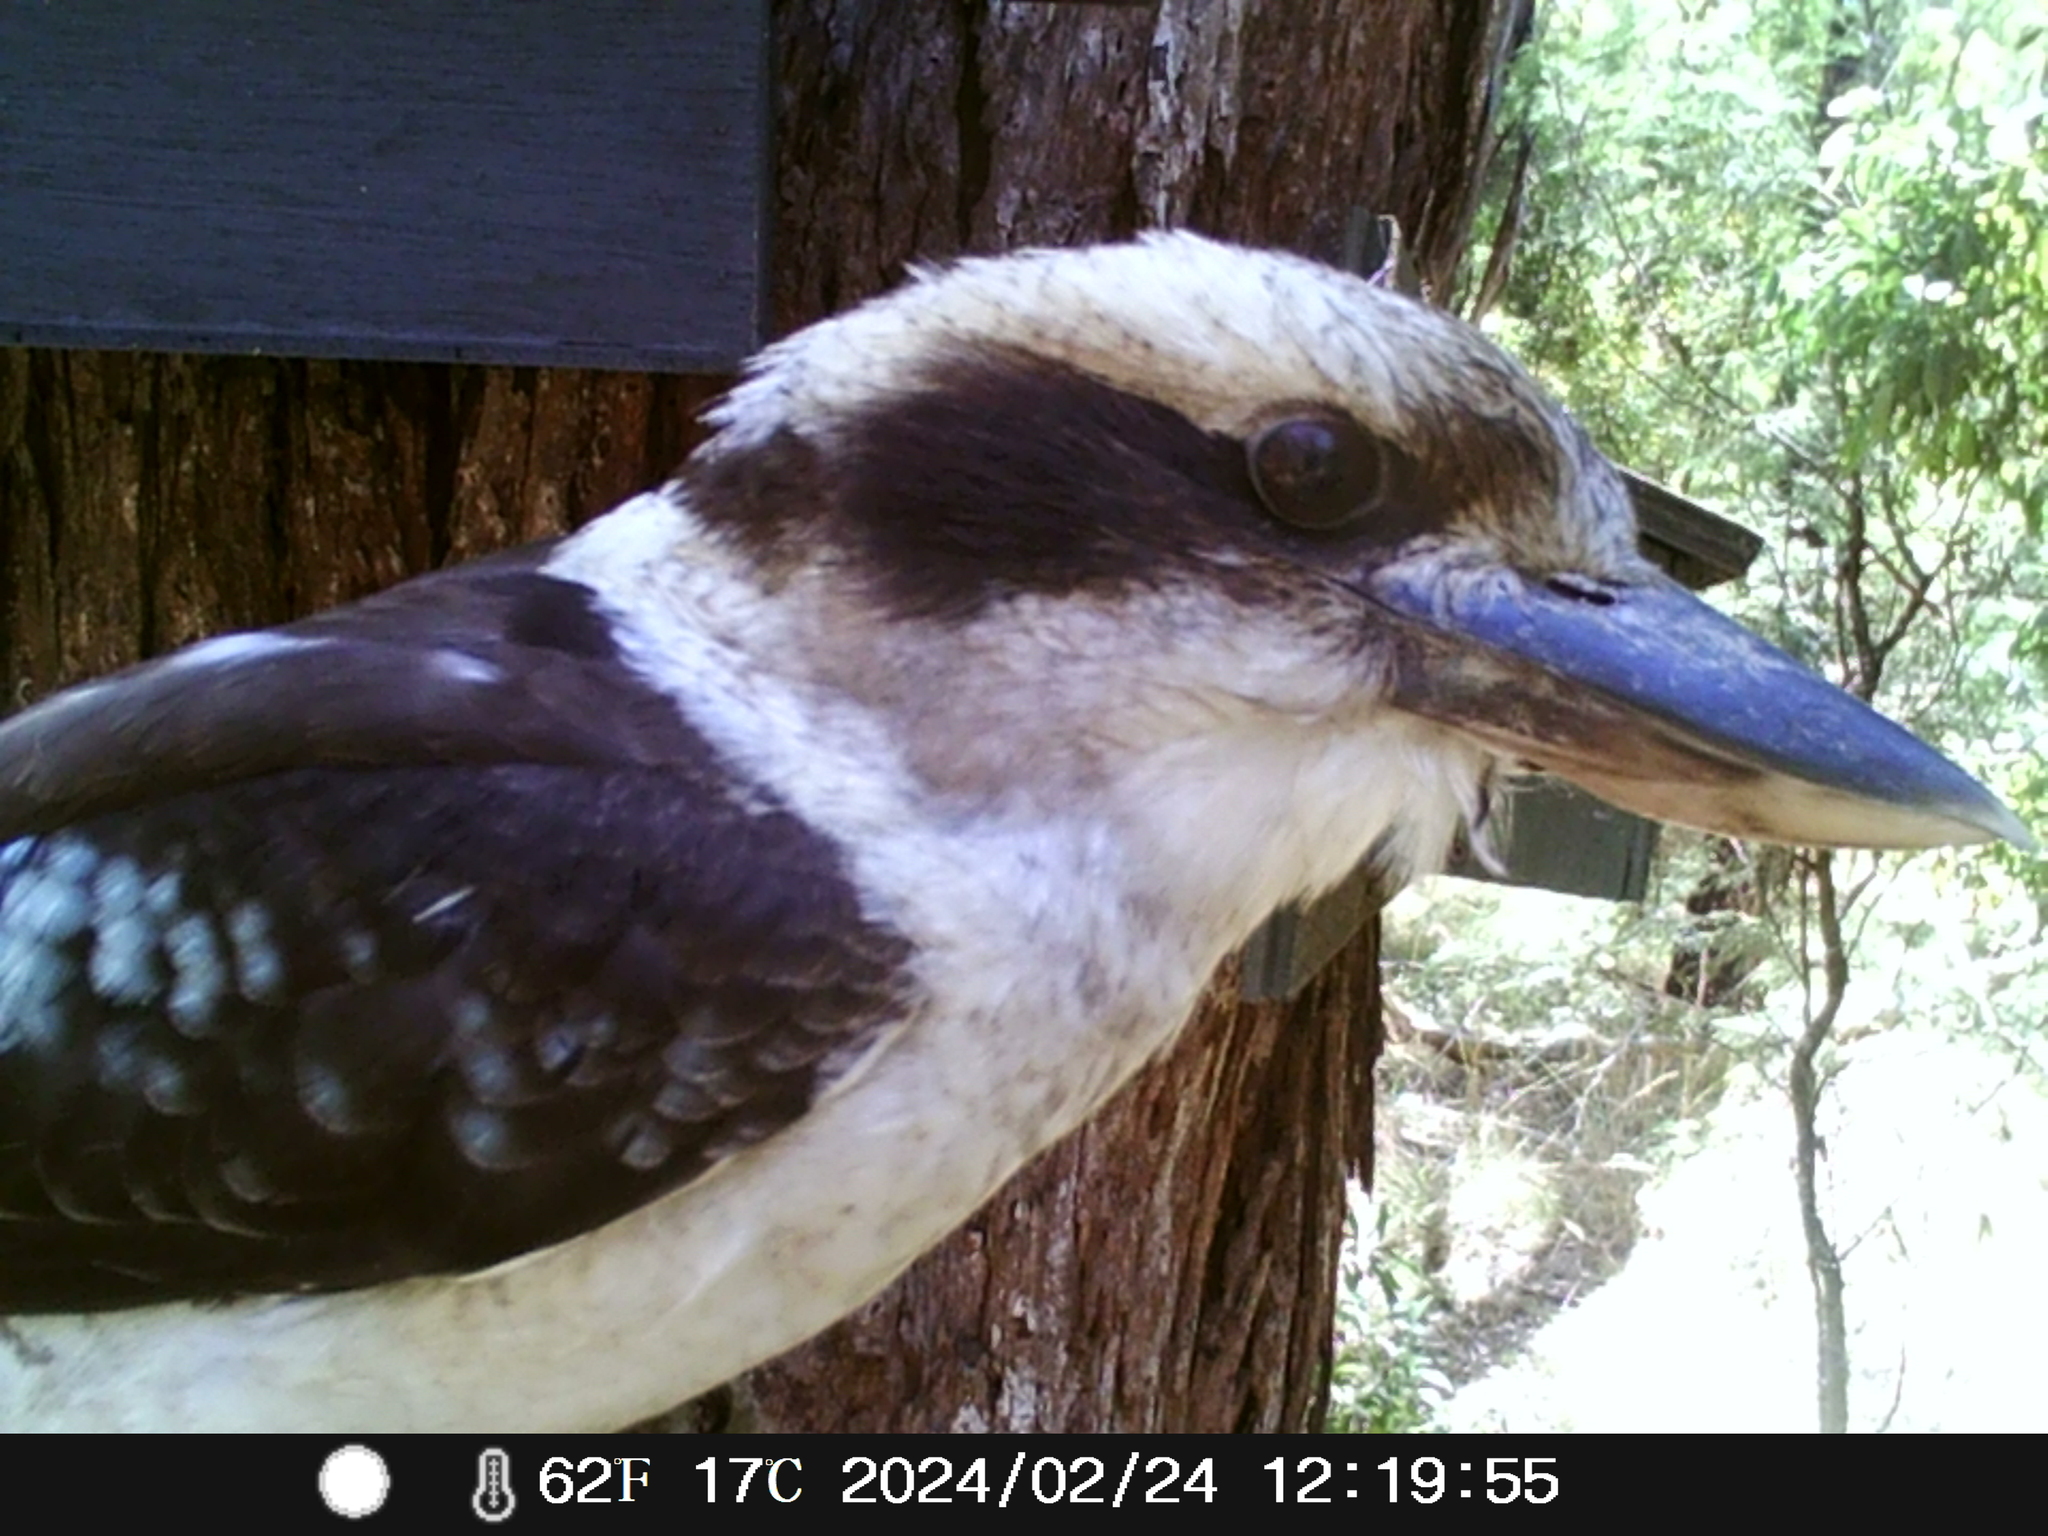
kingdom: Animalia
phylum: Chordata
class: Aves
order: Coraciiformes
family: Alcedinidae
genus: Dacelo
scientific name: Dacelo novaeguineae
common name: Laughing kookaburra
